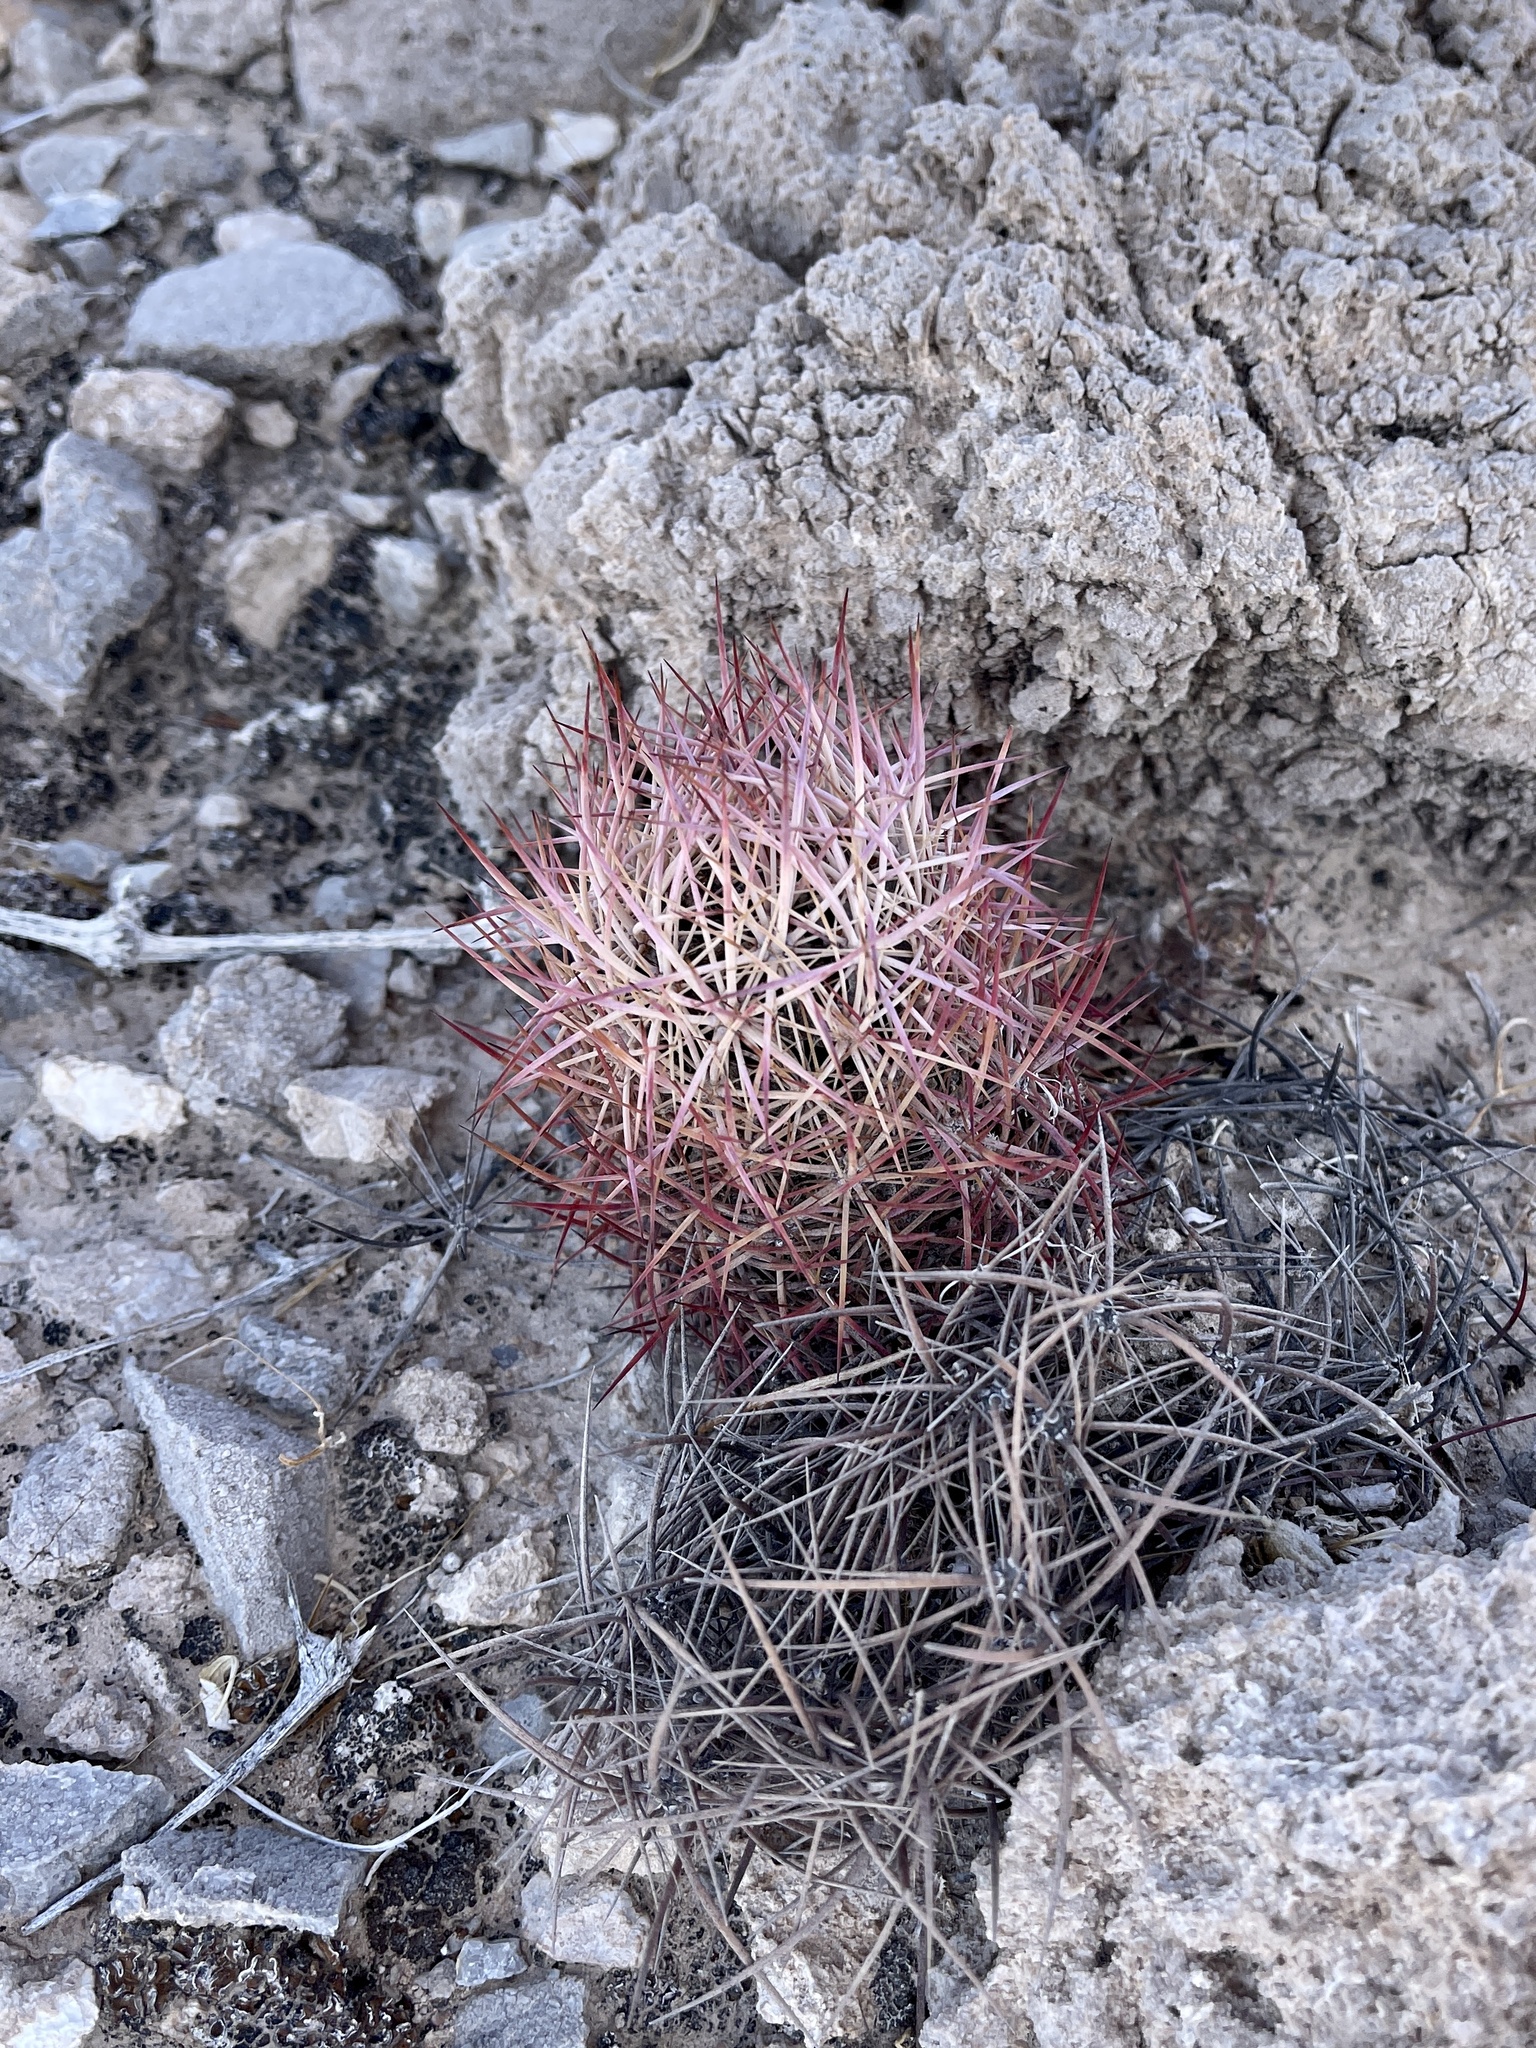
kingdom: Plantae
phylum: Tracheophyta
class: Magnoliopsida
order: Caryophyllales
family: Cactaceae
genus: Sclerocactus
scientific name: Sclerocactus johnsonii
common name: Eight-spine fishhook cactus
